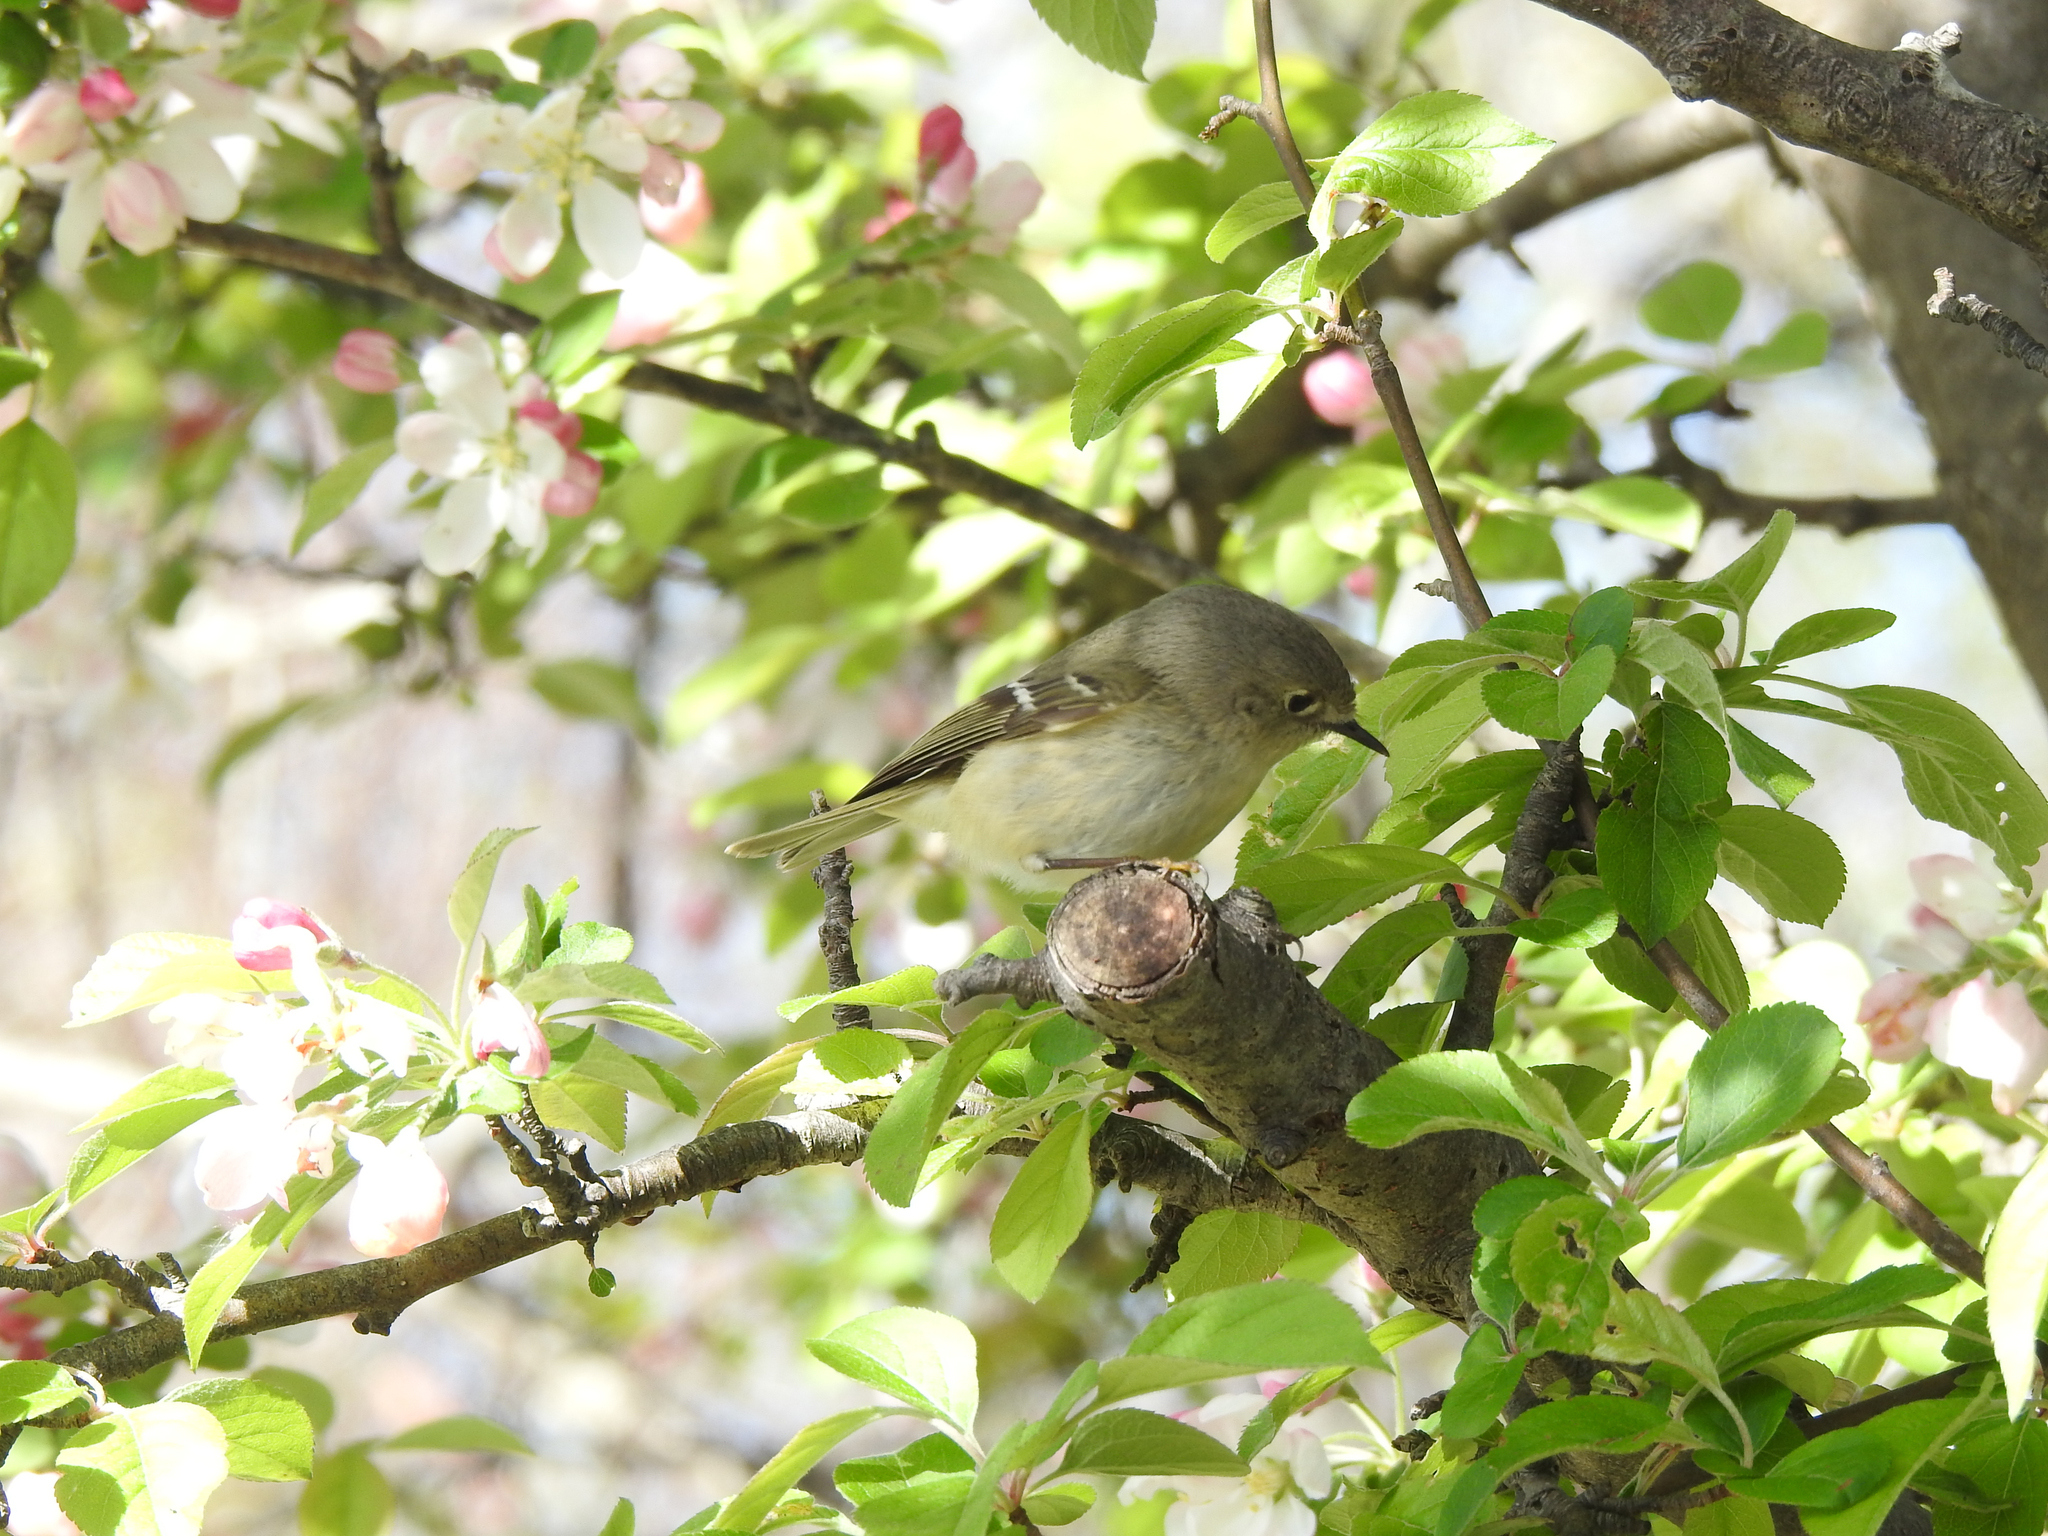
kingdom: Animalia
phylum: Chordata
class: Aves
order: Passeriformes
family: Regulidae
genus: Regulus
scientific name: Regulus calendula
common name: Ruby-crowned kinglet
